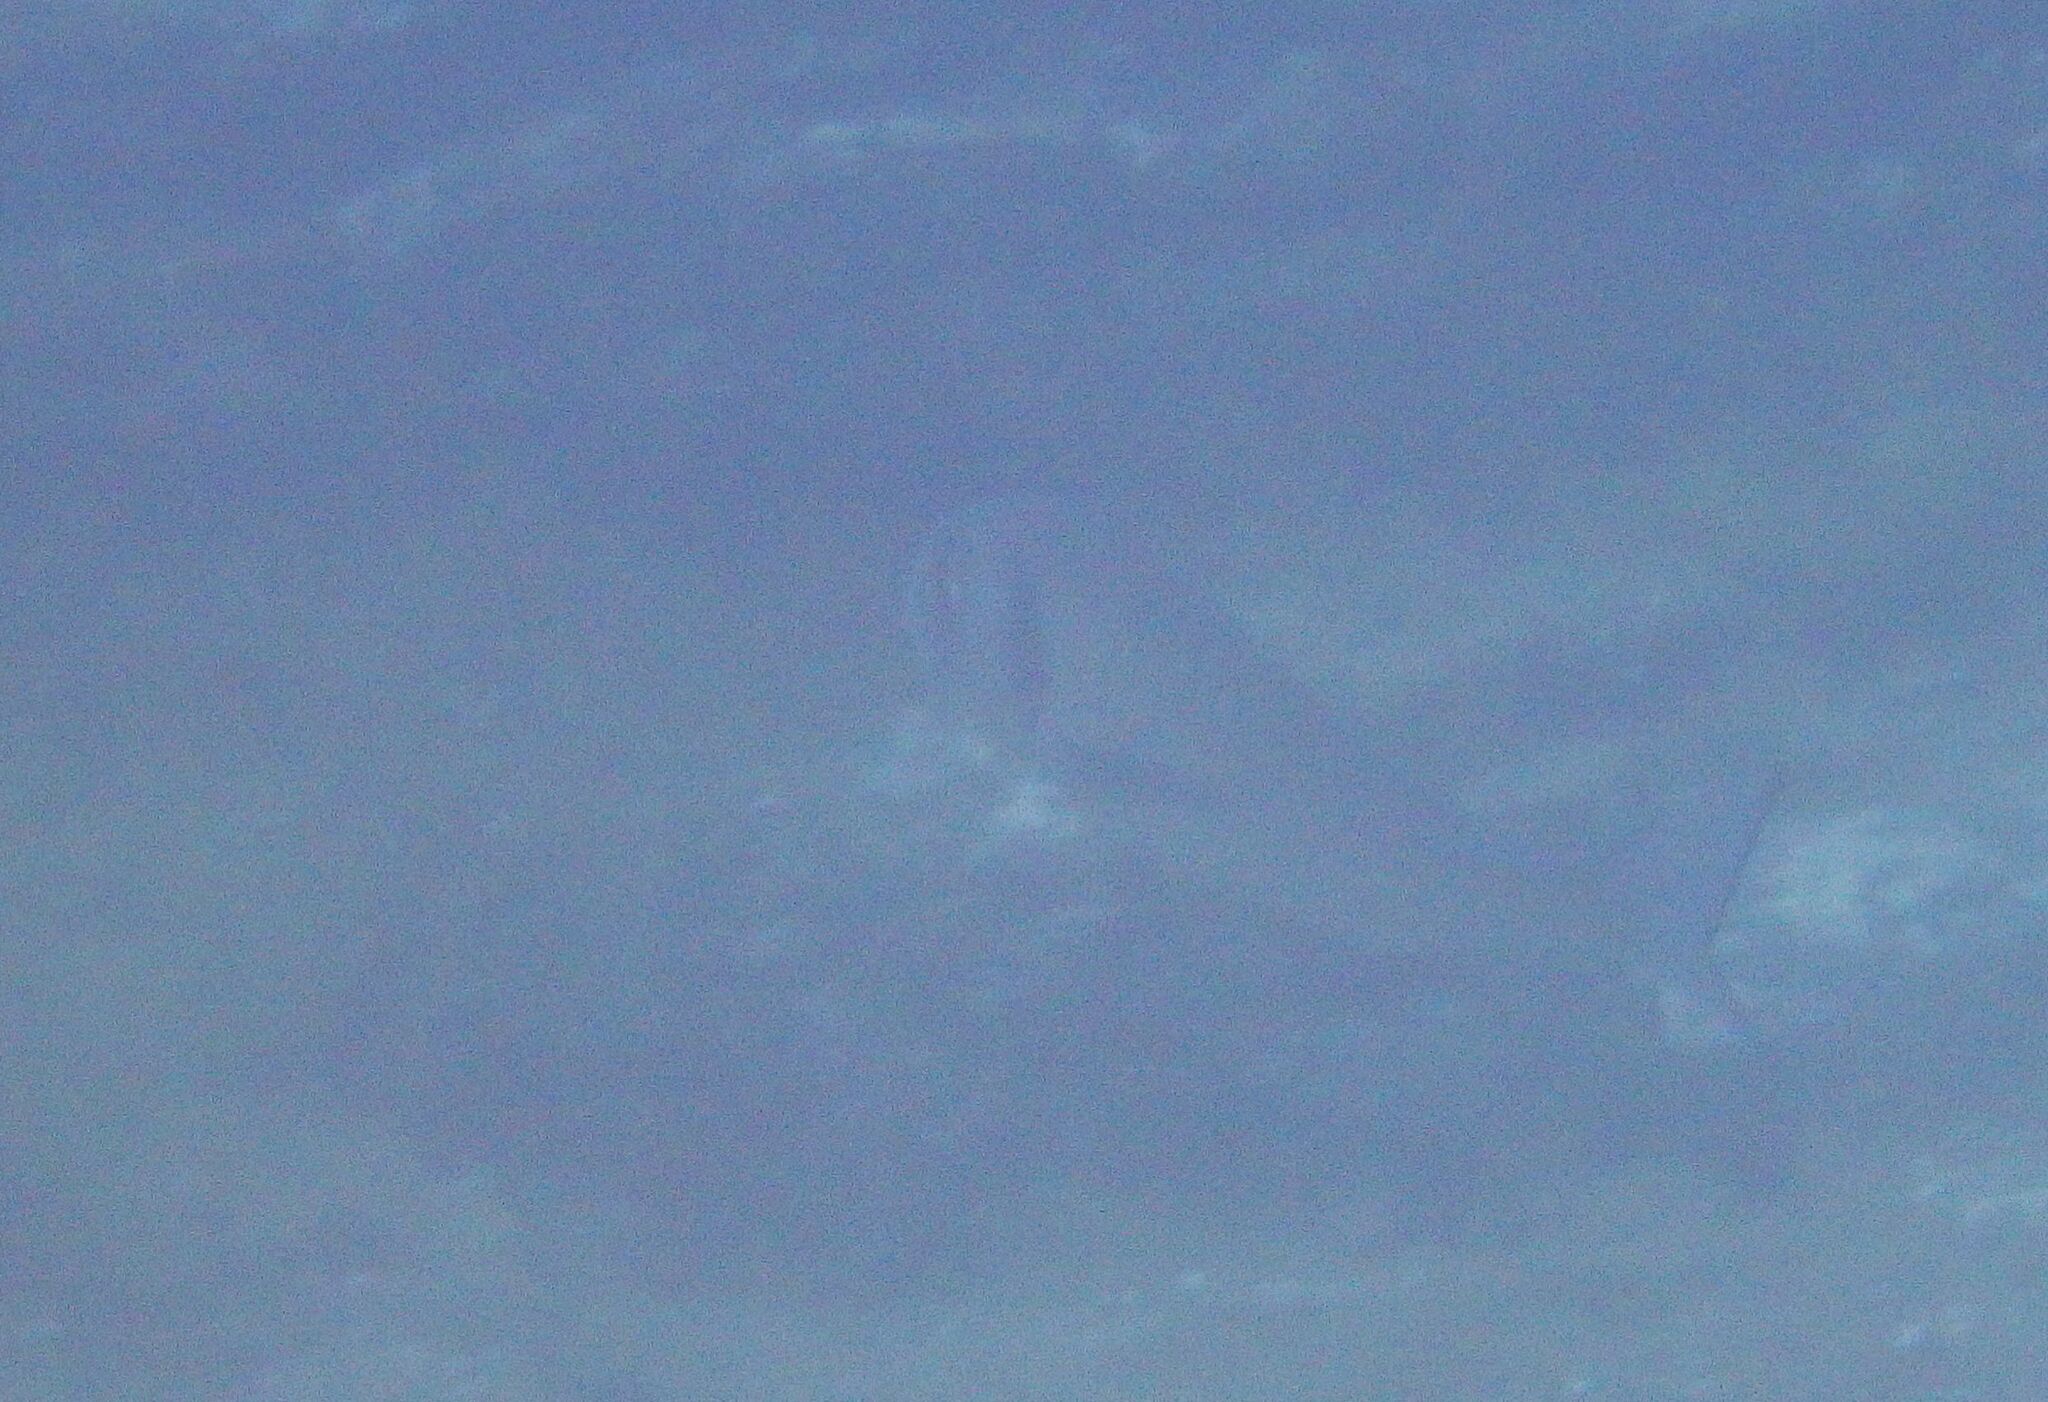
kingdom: Animalia
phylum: Chordata
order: Perciformes
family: Sparidae
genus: Sparus
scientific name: Sparus aurata
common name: Gilthead
